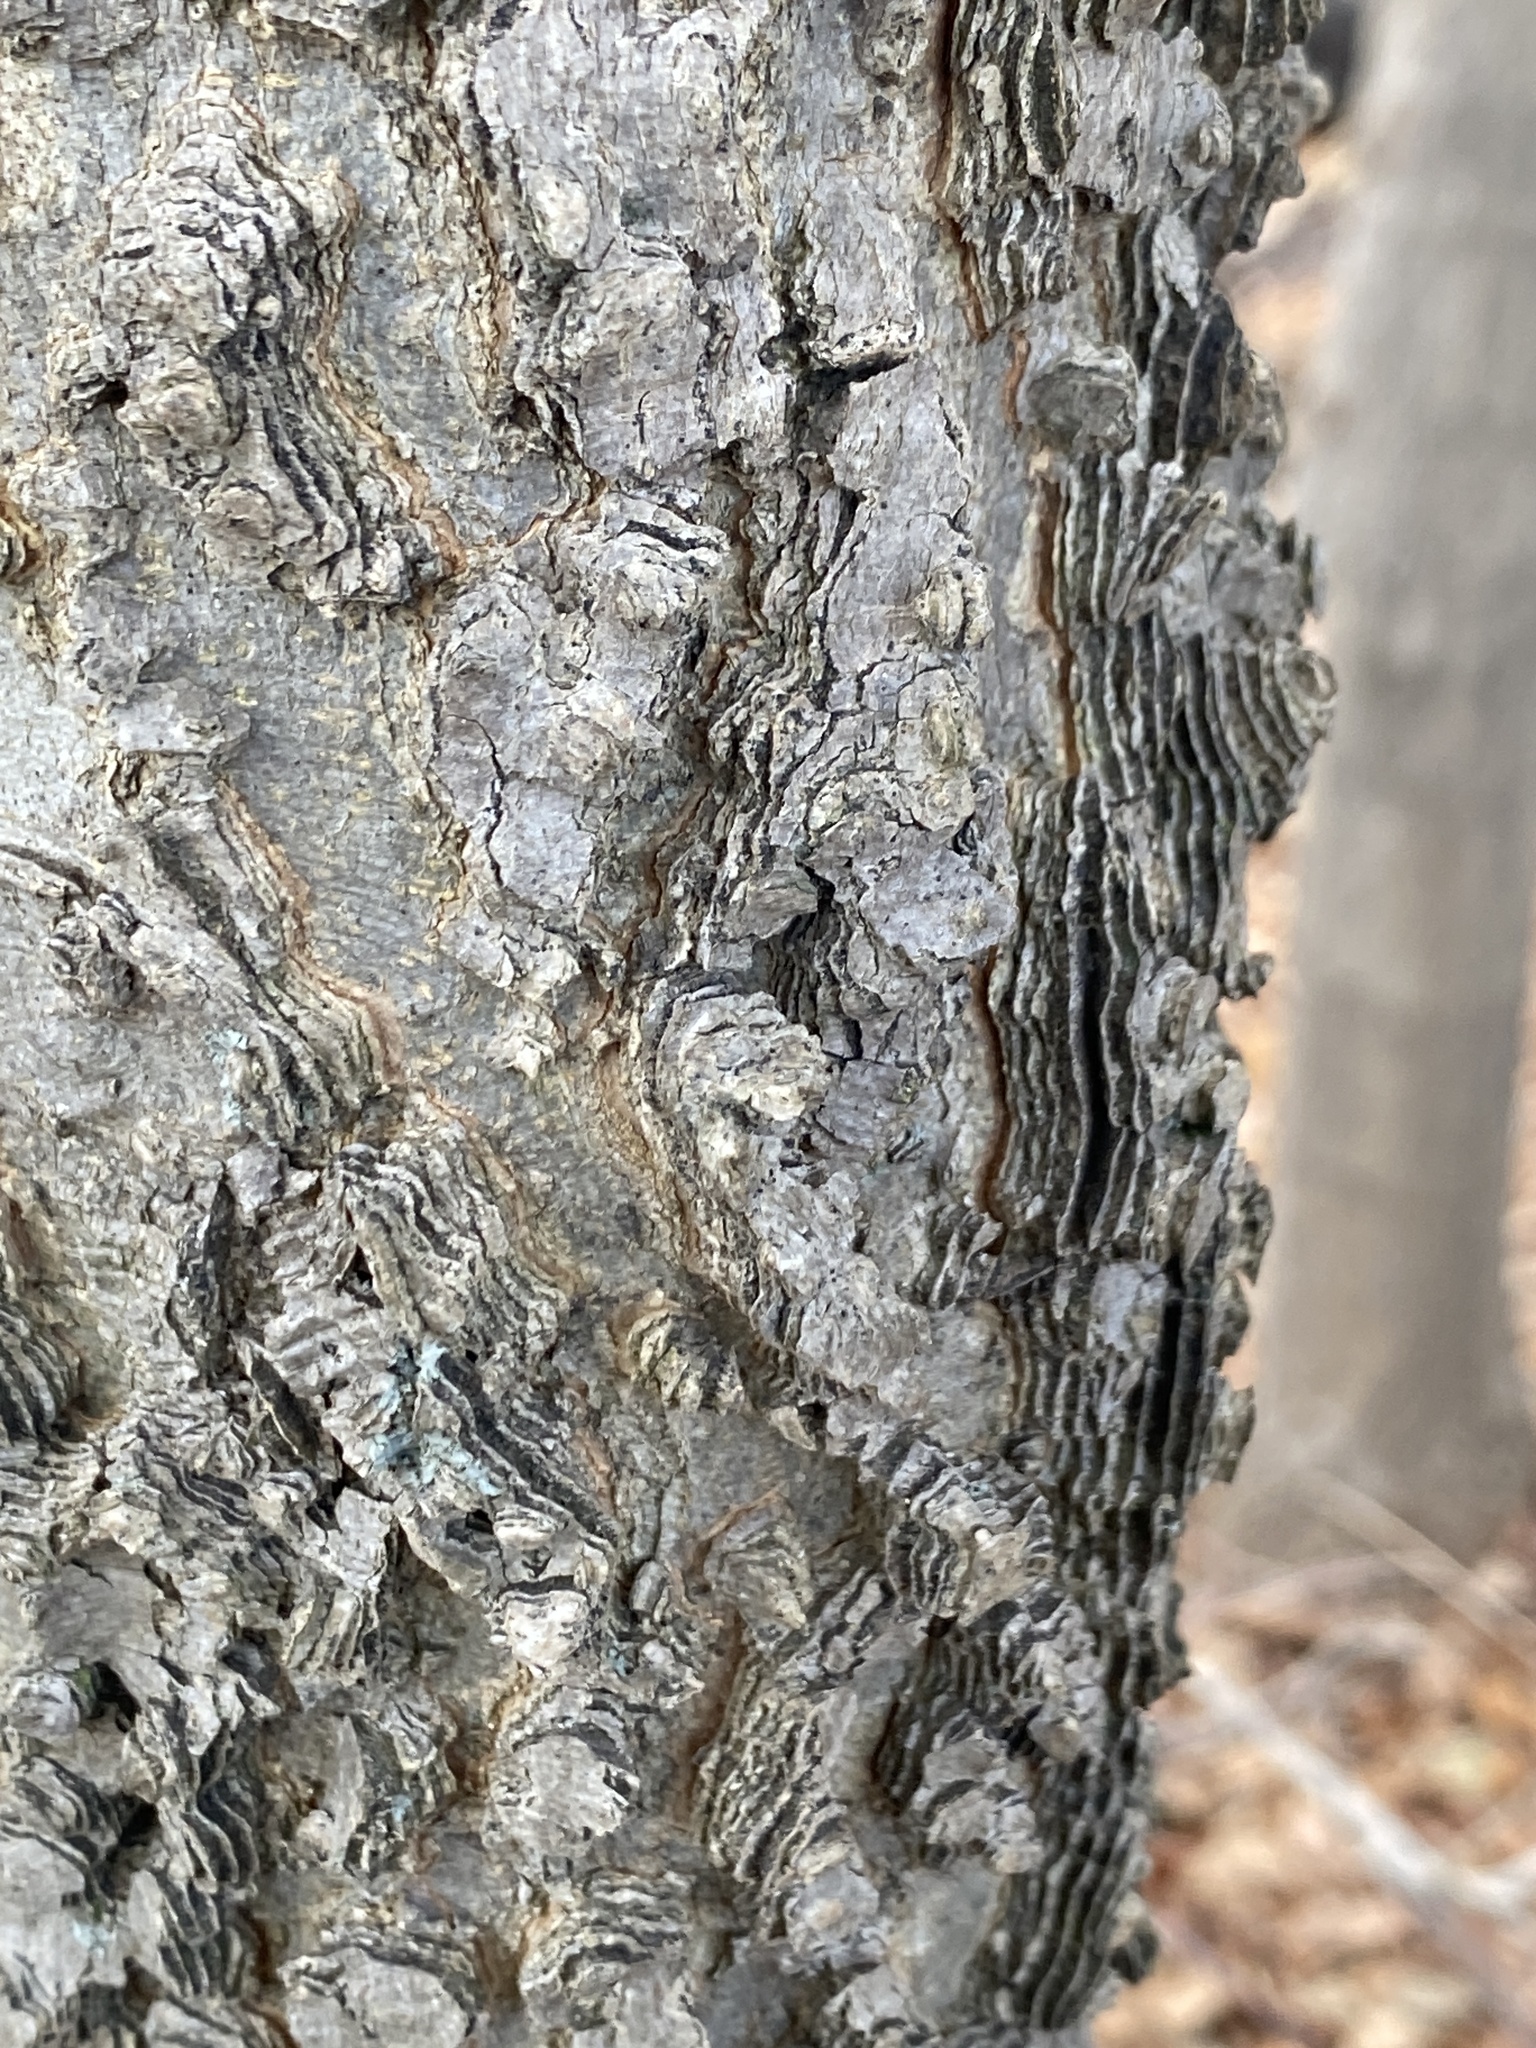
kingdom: Plantae
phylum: Tracheophyta
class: Magnoliopsida
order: Rosales
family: Cannabaceae
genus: Celtis
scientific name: Celtis occidentalis
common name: Common hackberry
